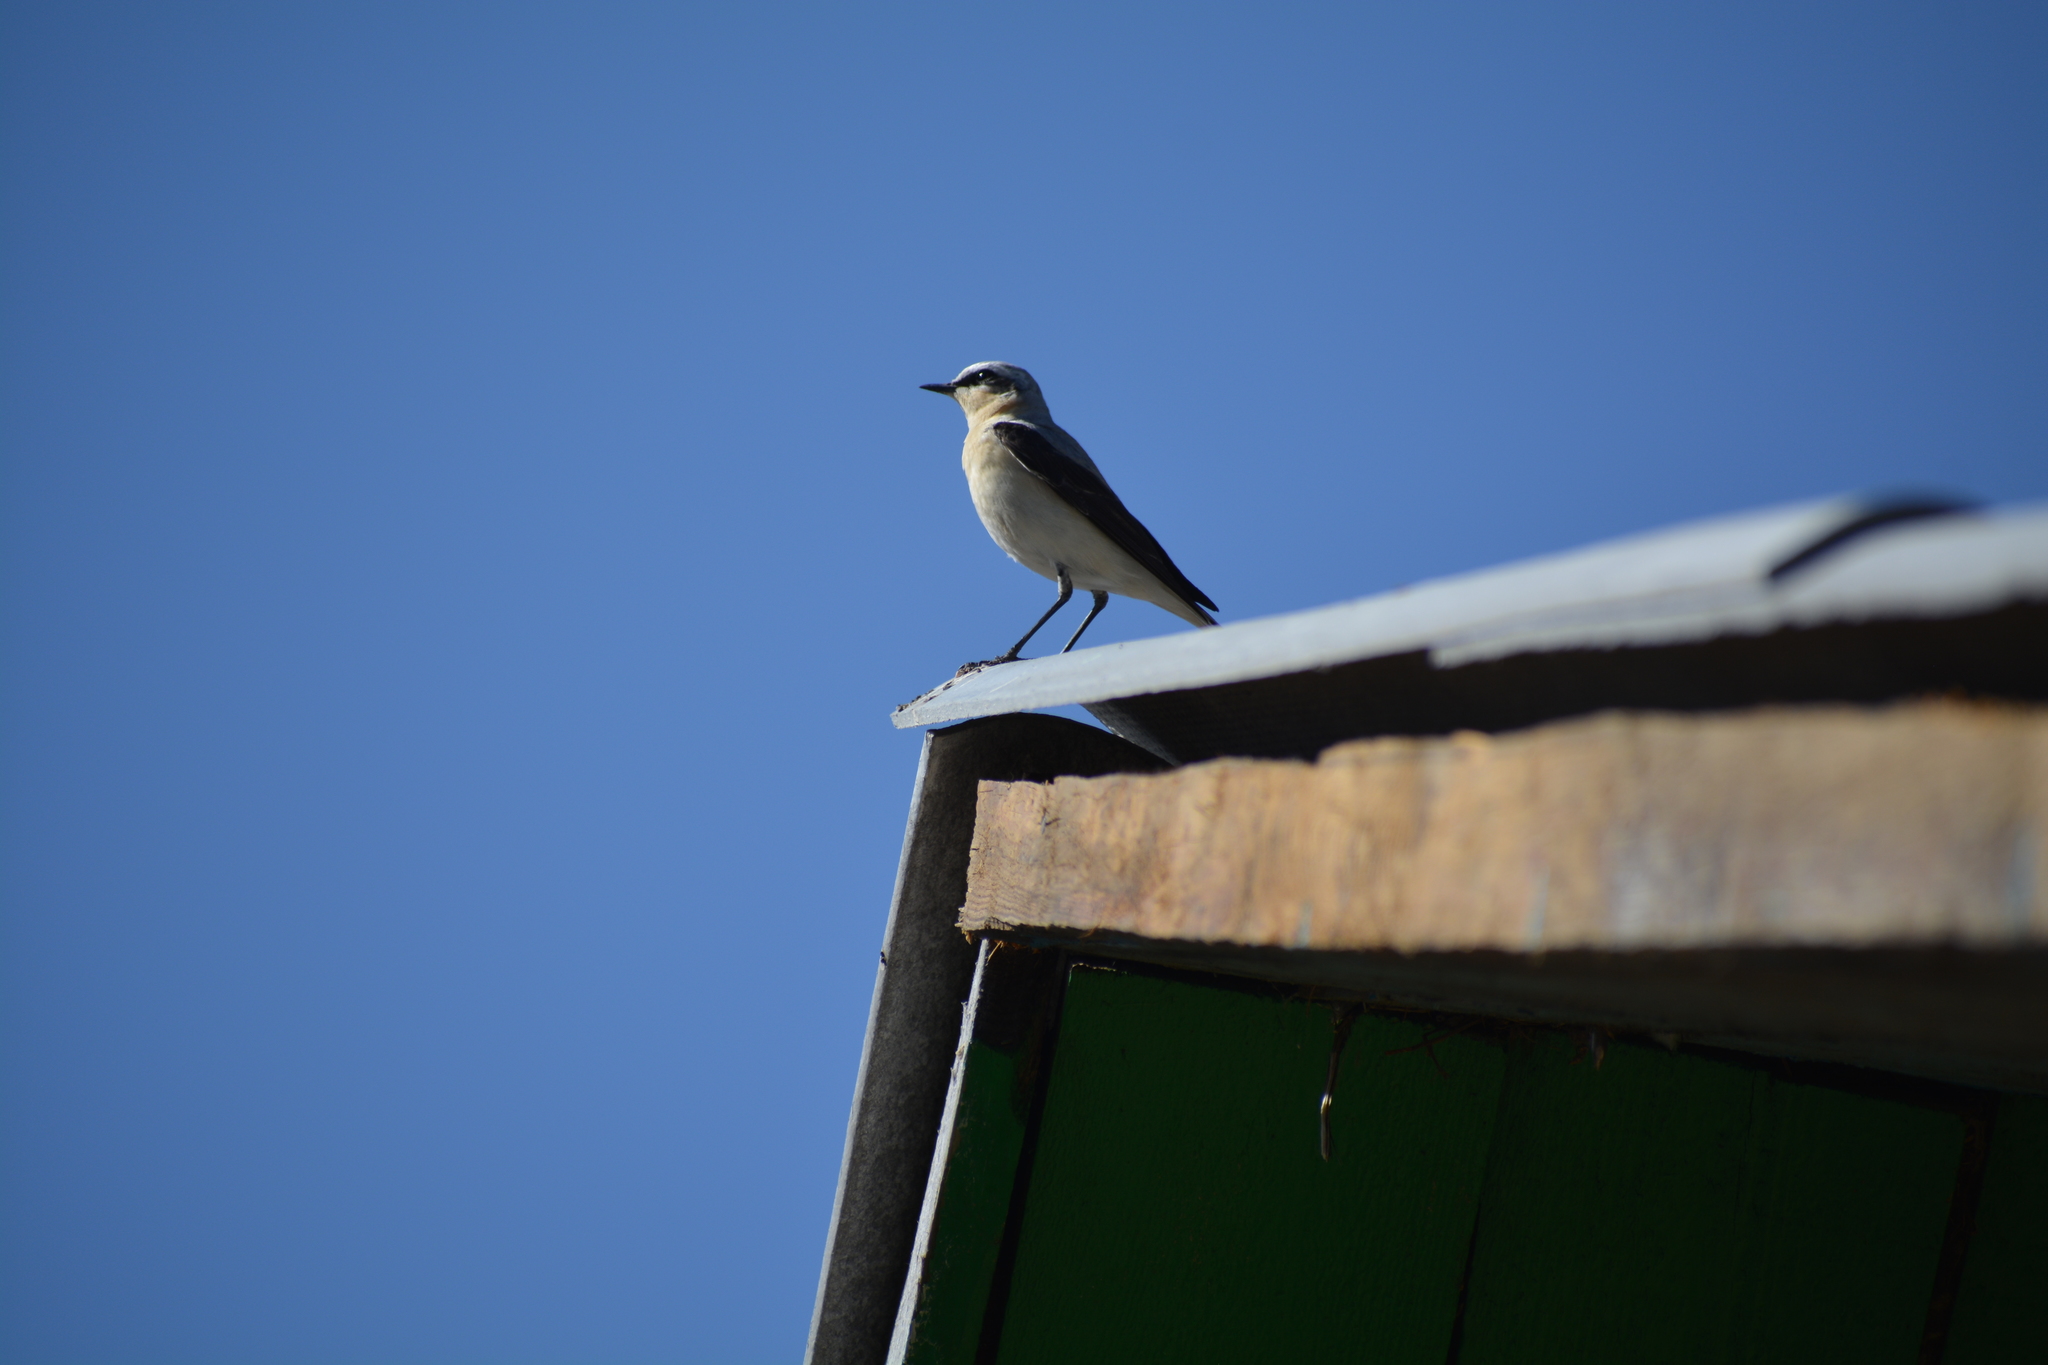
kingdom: Animalia
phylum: Chordata
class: Aves
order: Passeriformes
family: Muscicapidae
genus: Oenanthe
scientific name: Oenanthe oenanthe
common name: Northern wheatear
